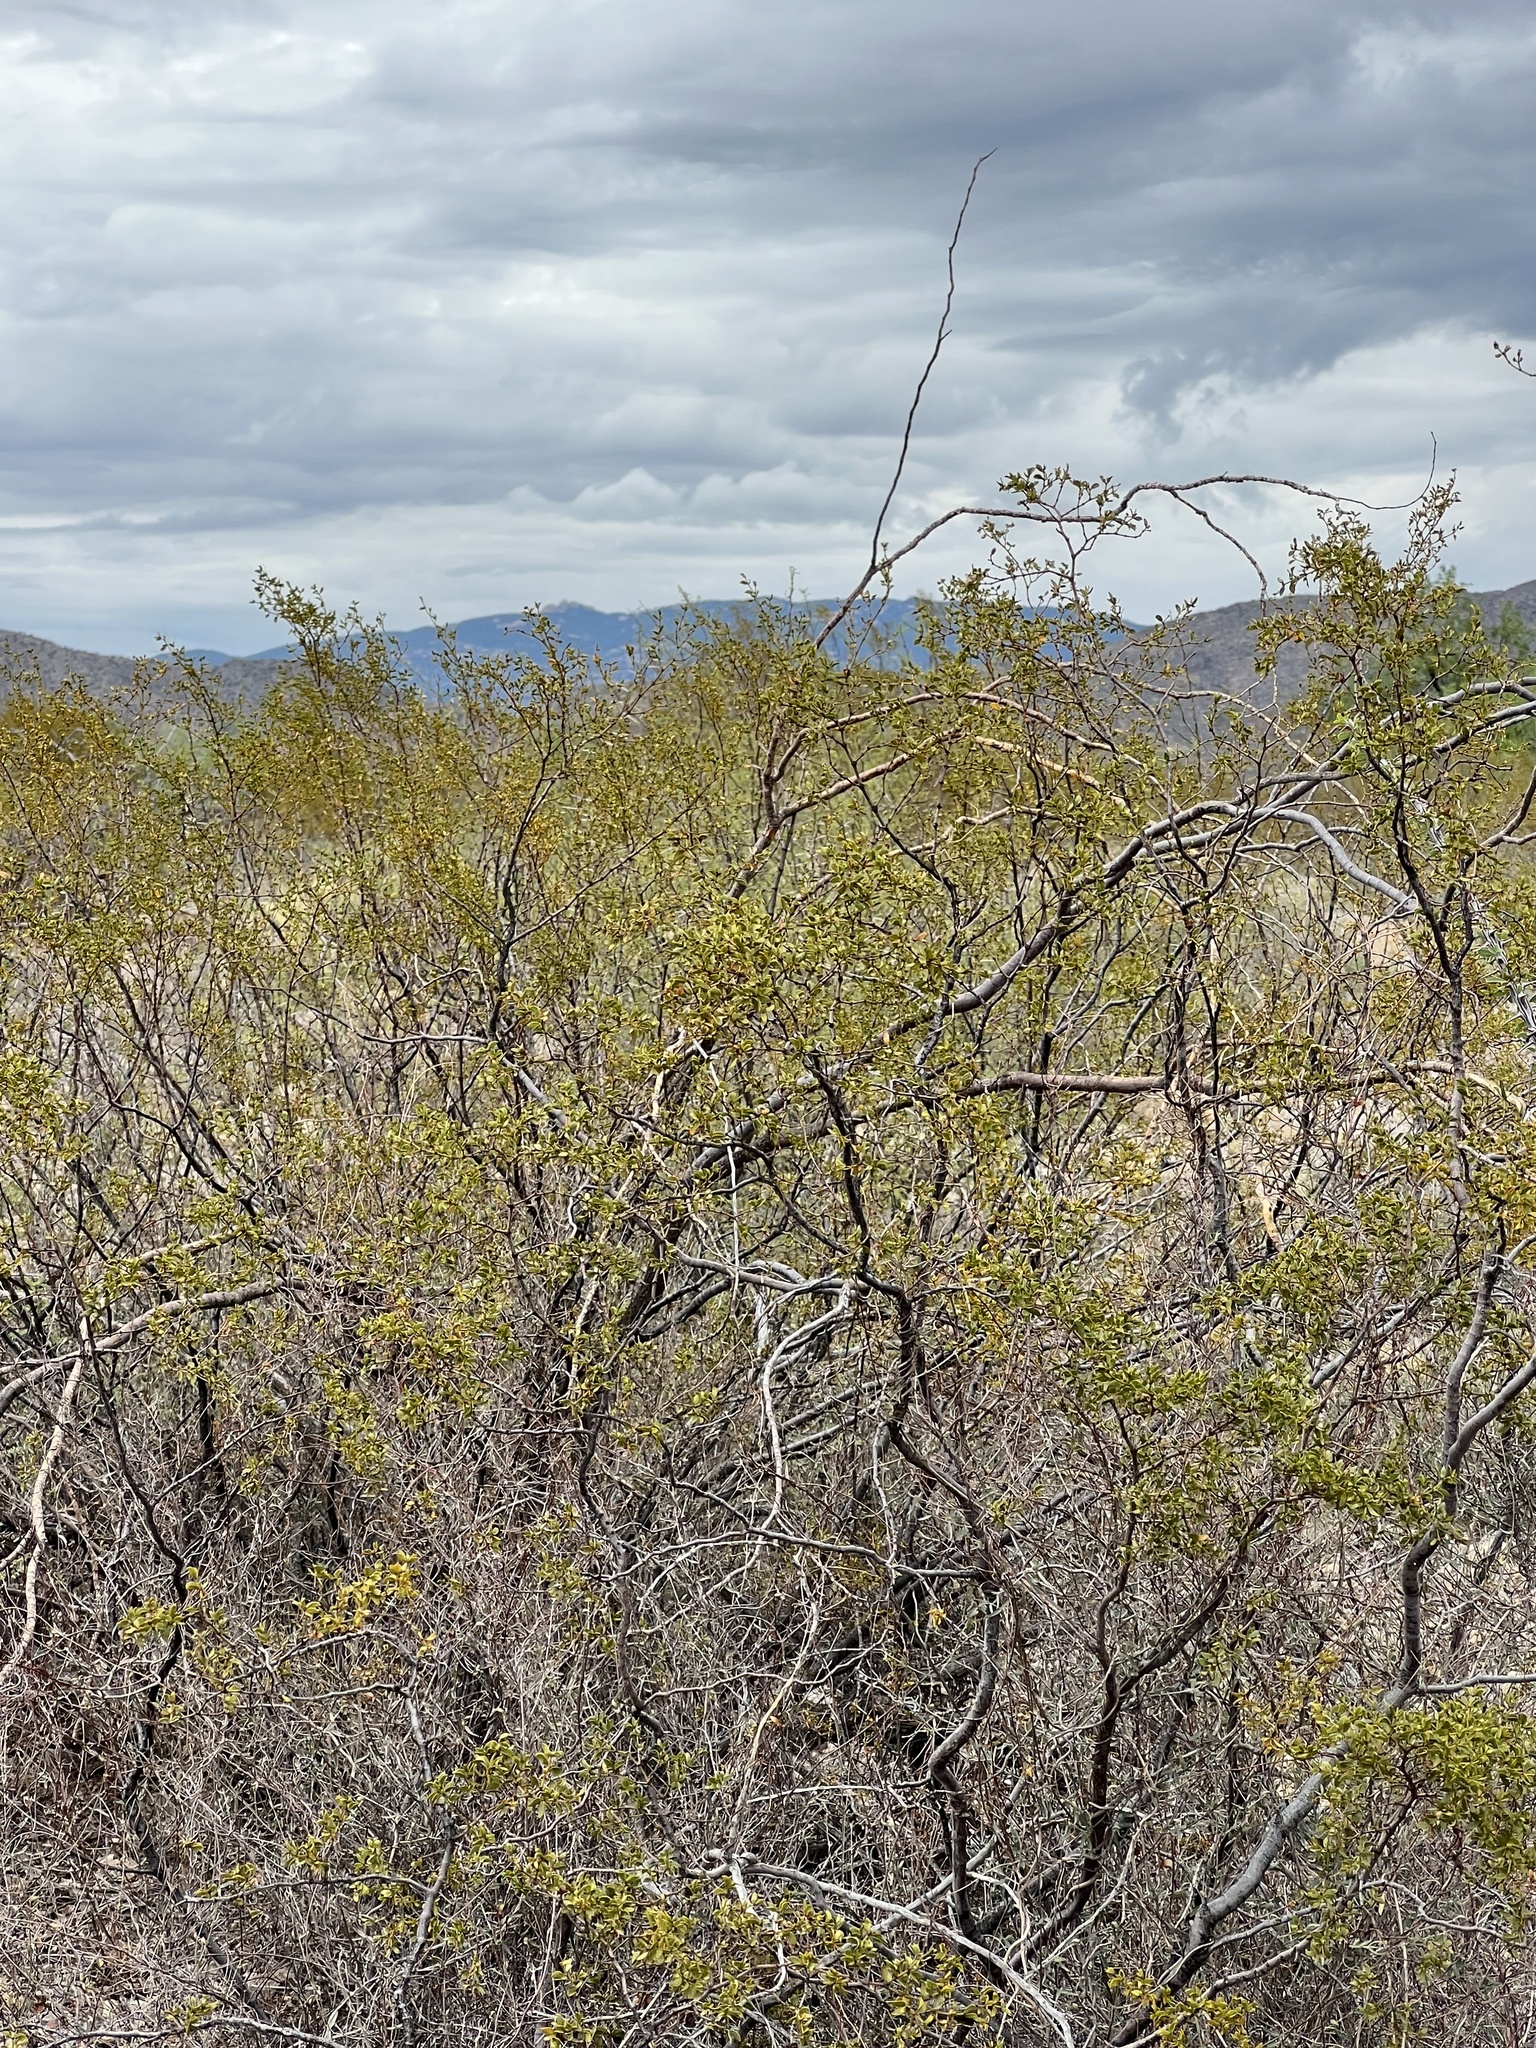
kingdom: Plantae
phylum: Tracheophyta
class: Magnoliopsida
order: Zygophyllales
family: Zygophyllaceae
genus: Larrea
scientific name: Larrea tridentata
